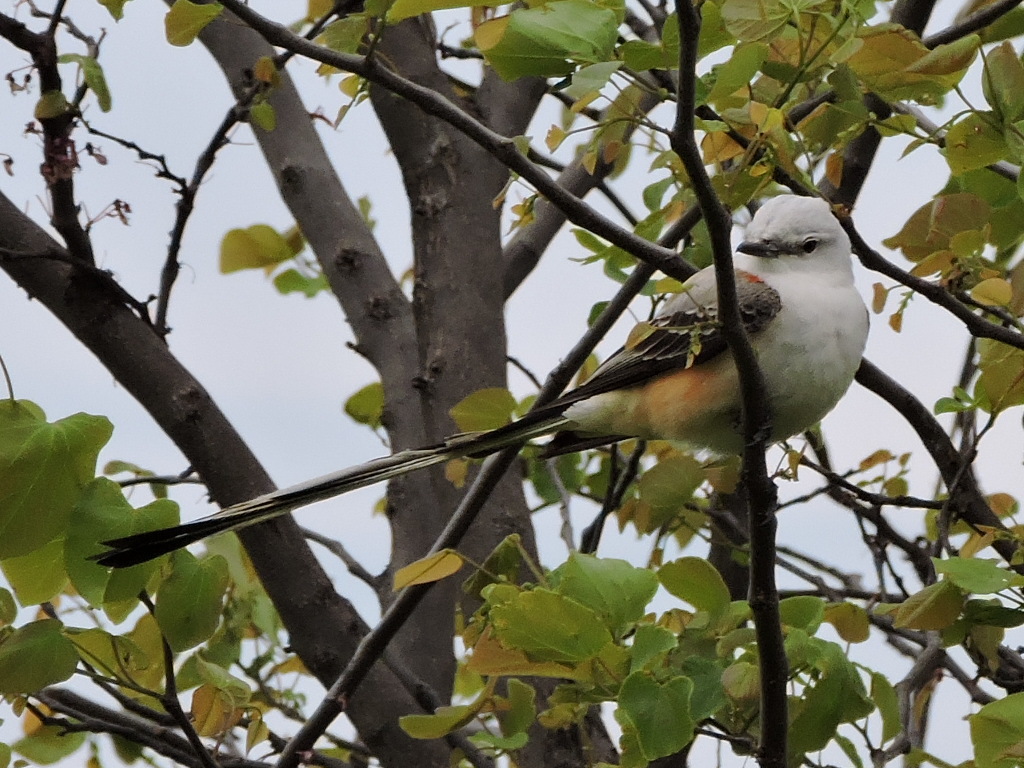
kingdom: Animalia
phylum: Chordata
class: Aves
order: Passeriformes
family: Tyrannidae
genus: Tyrannus
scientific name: Tyrannus forficatus
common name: Scissor-tailed flycatcher
